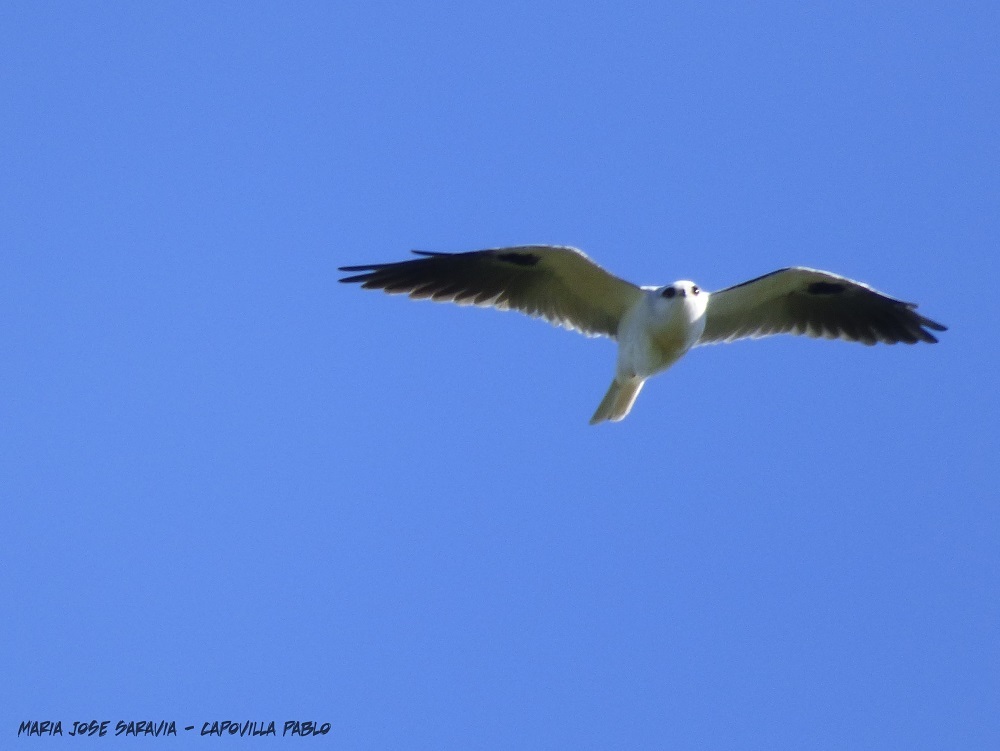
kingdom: Animalia
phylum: Chordata
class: Aves
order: Accipitriformes
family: Accipitridae
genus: Elanus
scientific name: Elanus leucurus
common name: White-tailed kite
